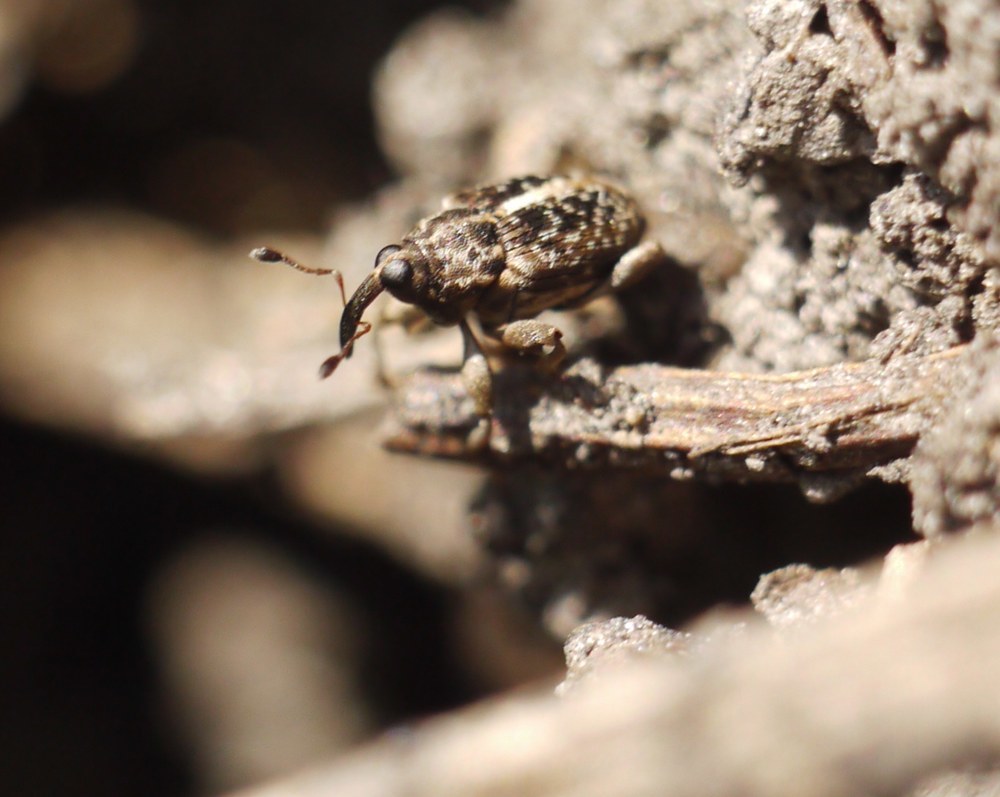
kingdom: Animalia
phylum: Arthropoda
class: Insecta
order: Coleoptera
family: Curculionidae
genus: Poecilma
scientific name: Poecilma
